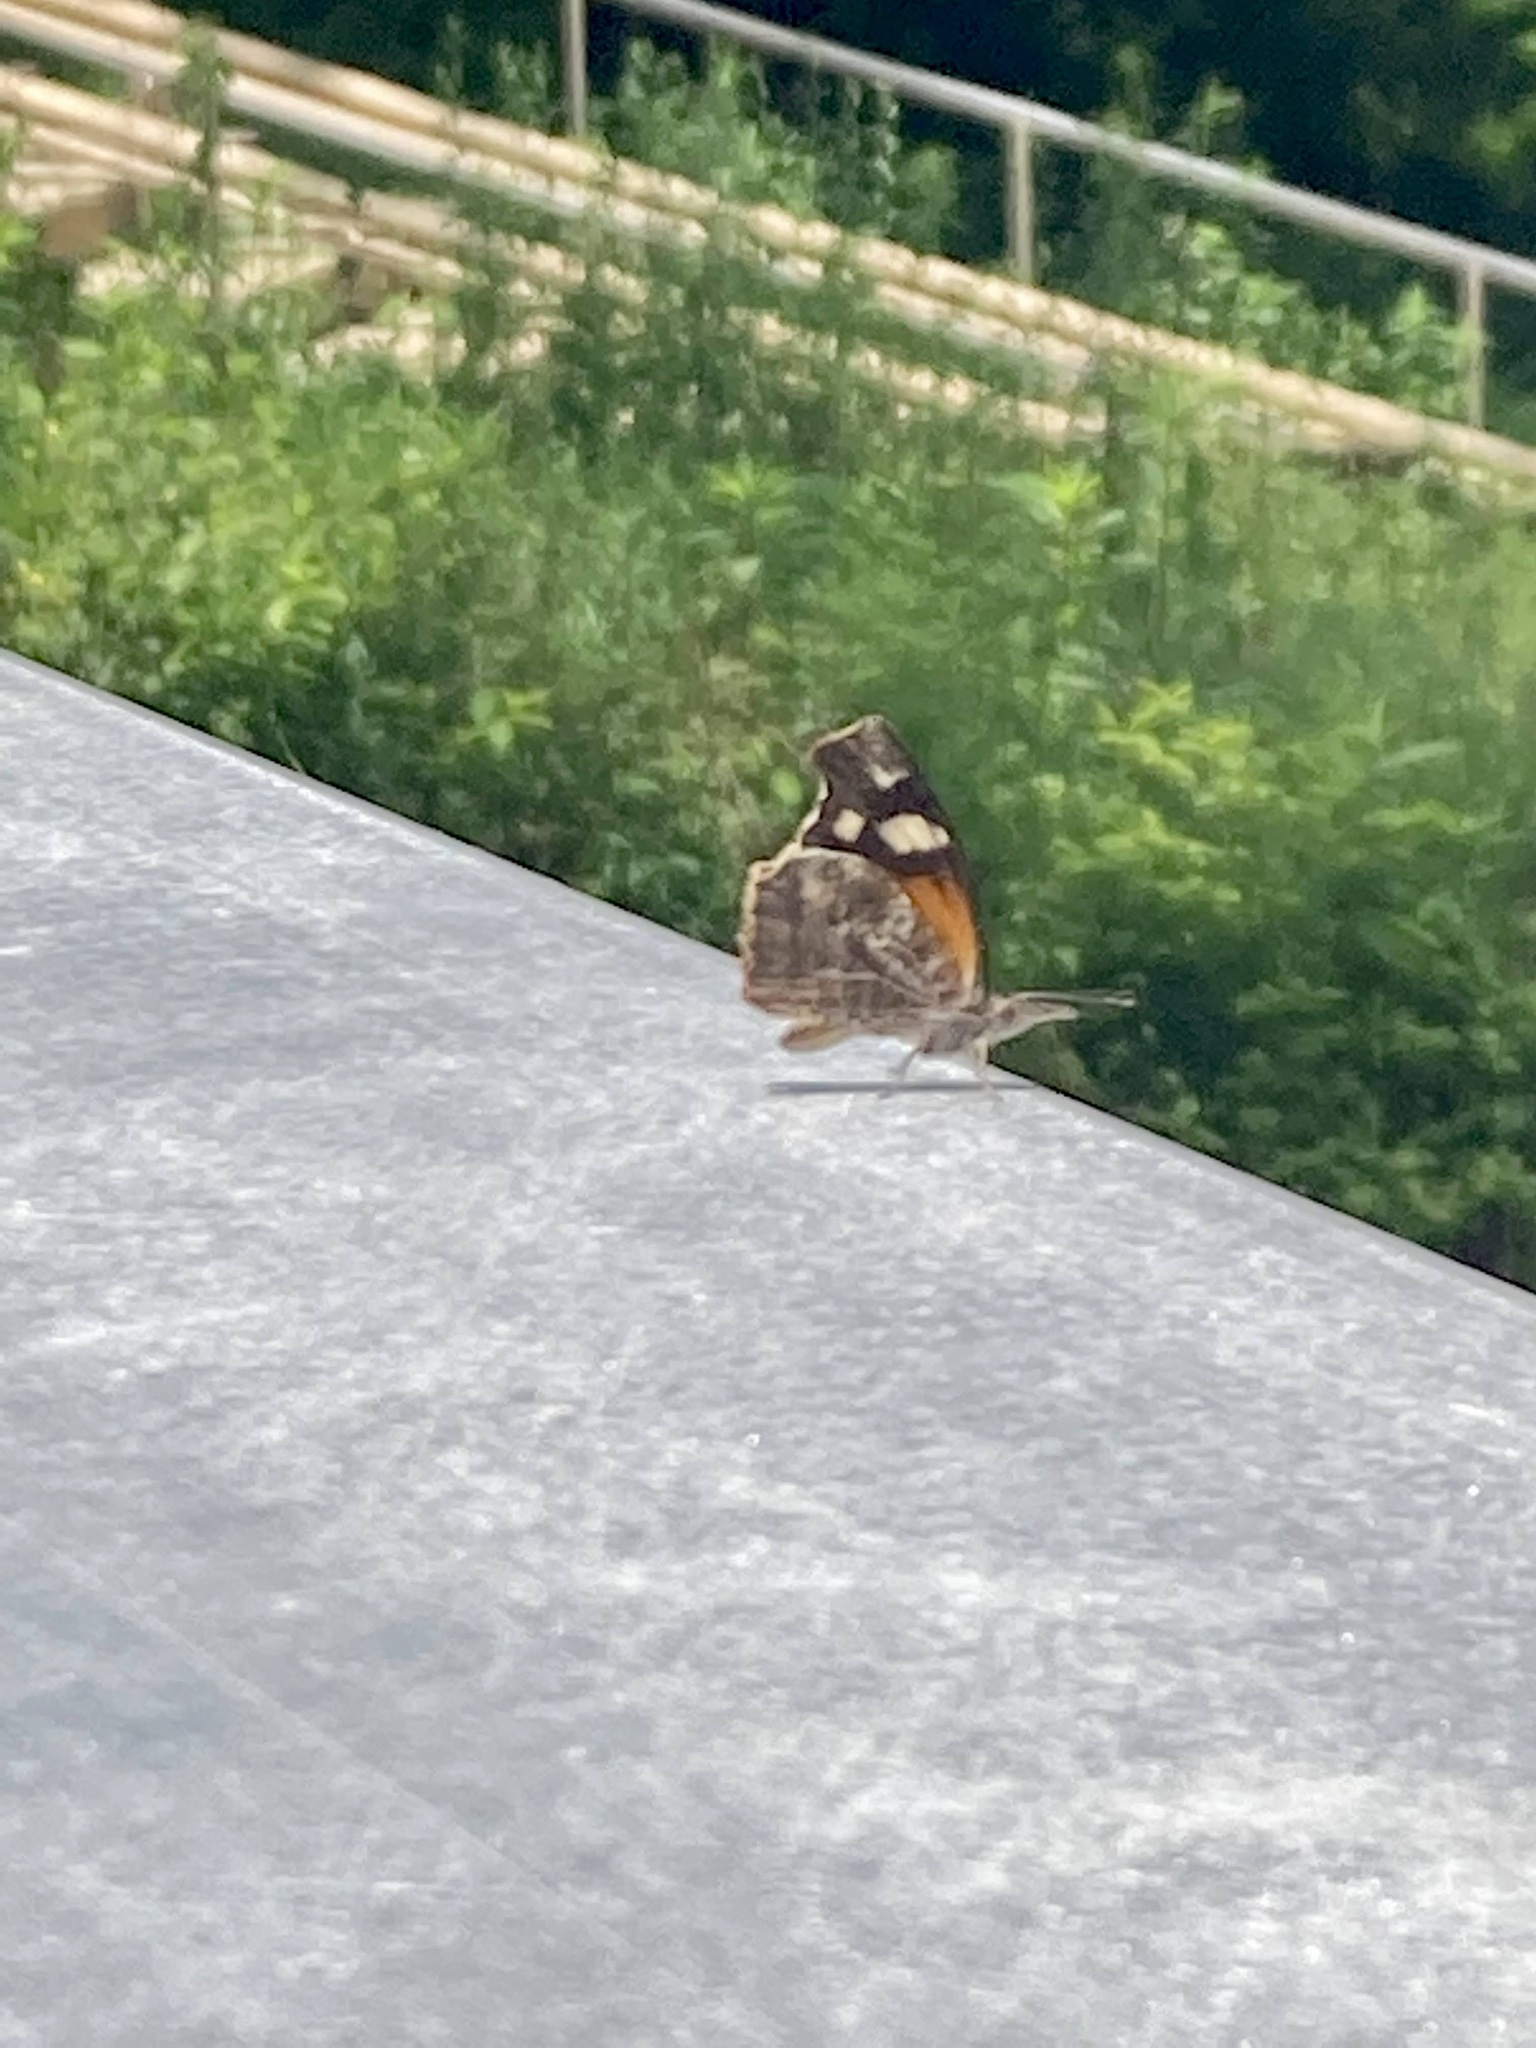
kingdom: Animalia
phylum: Arthropoda
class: Insecta
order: Lepidoptera
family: Nymphalidae
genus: Libytheana
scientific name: Libytheana carinenta
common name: American snout
